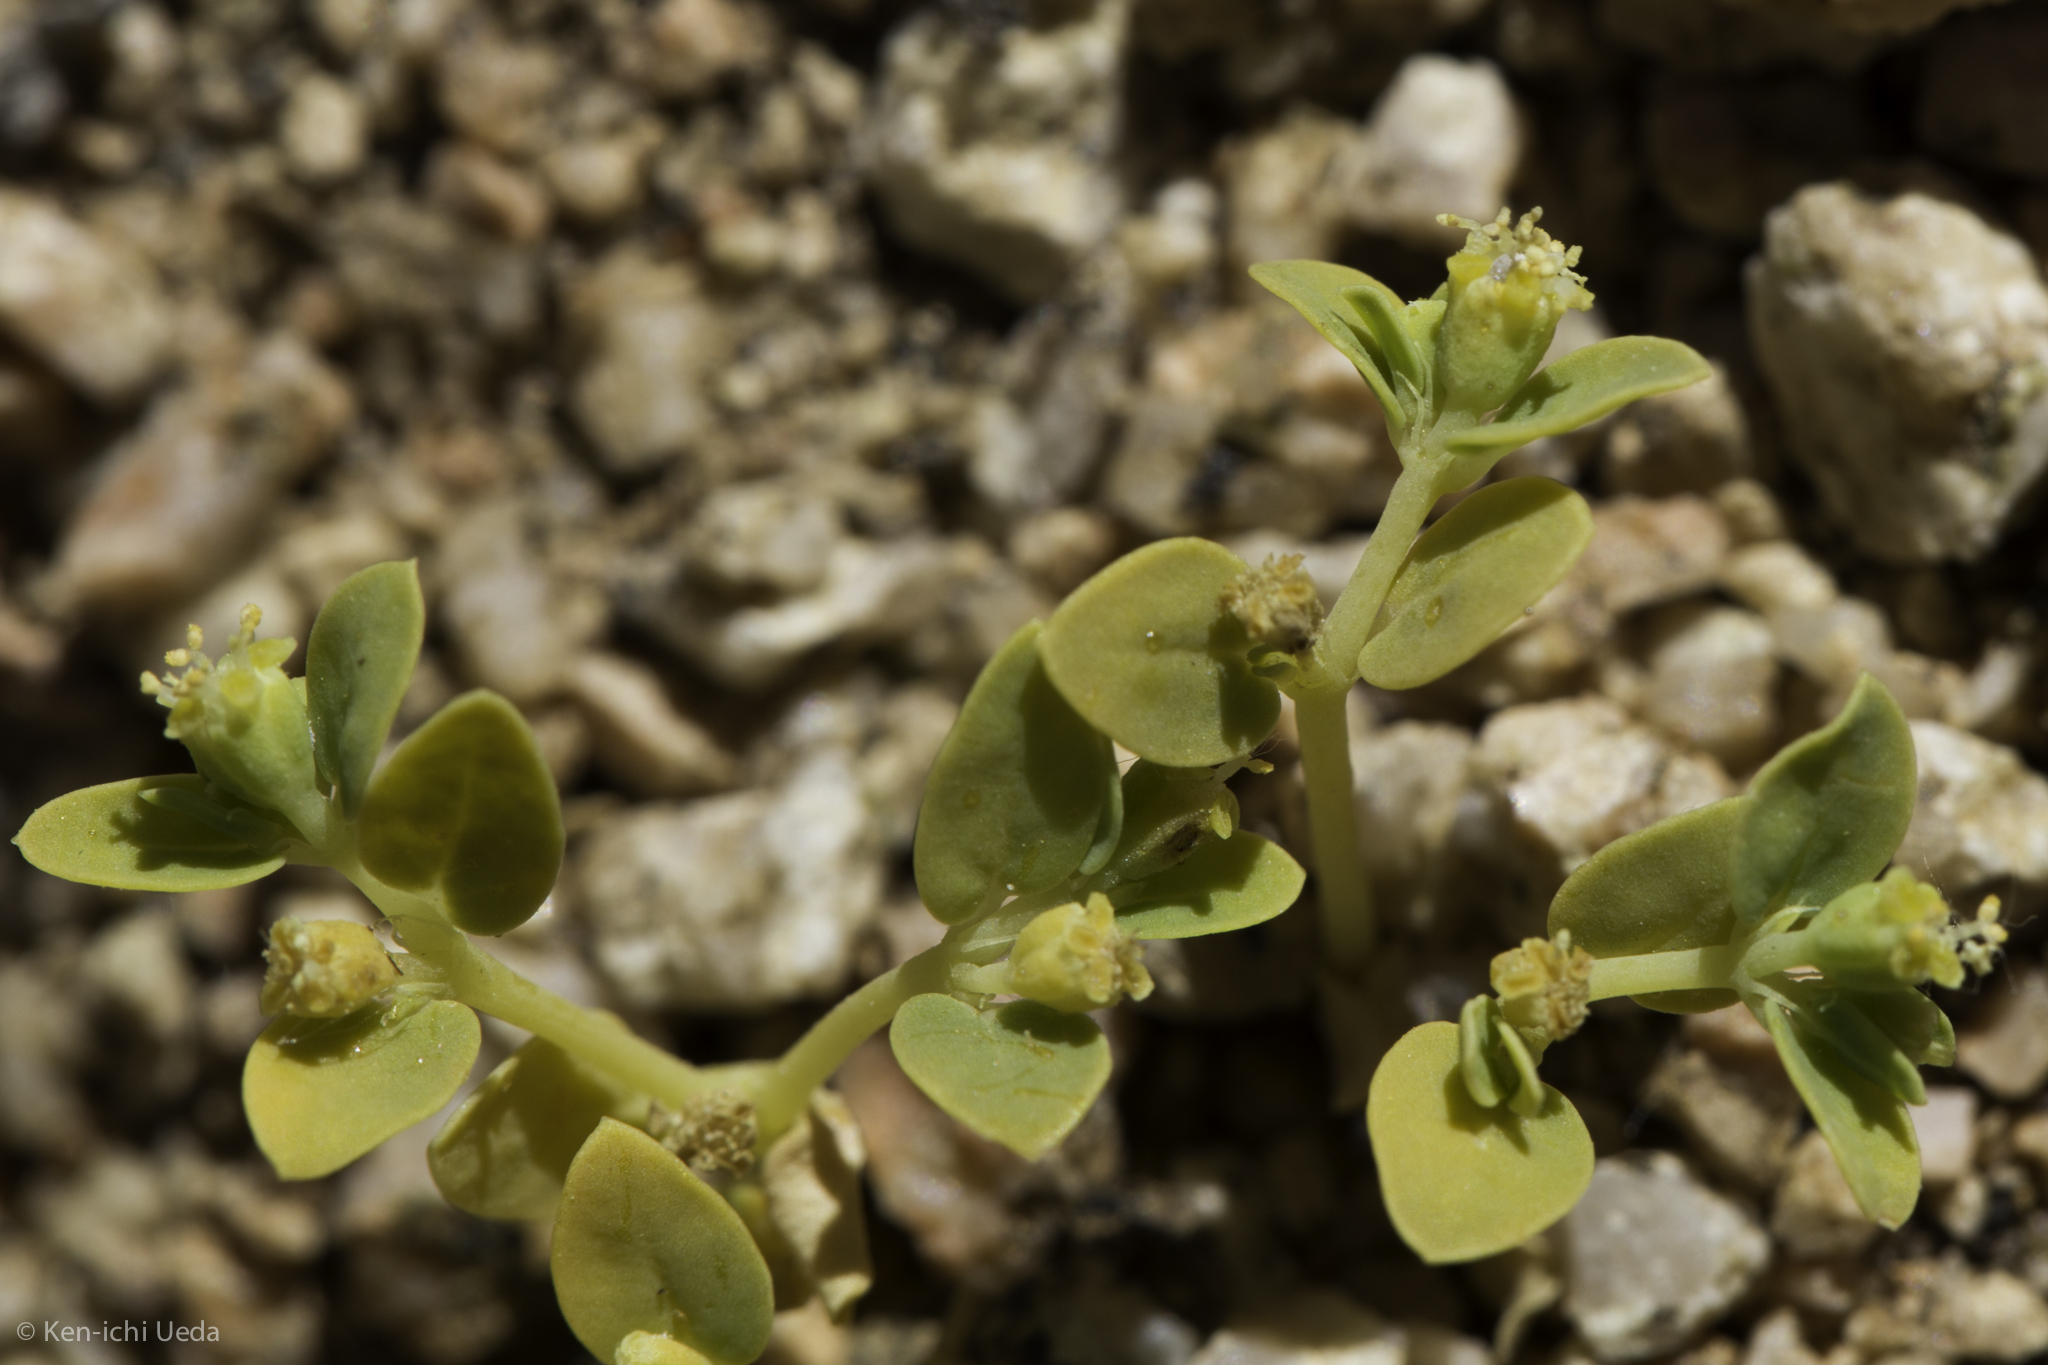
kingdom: Plantae
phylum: Tracheophyta
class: Magnoliopsida
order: Malpighiales
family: Euphorbiaceae
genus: Euphorbia
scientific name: Euphorbia ocellata
